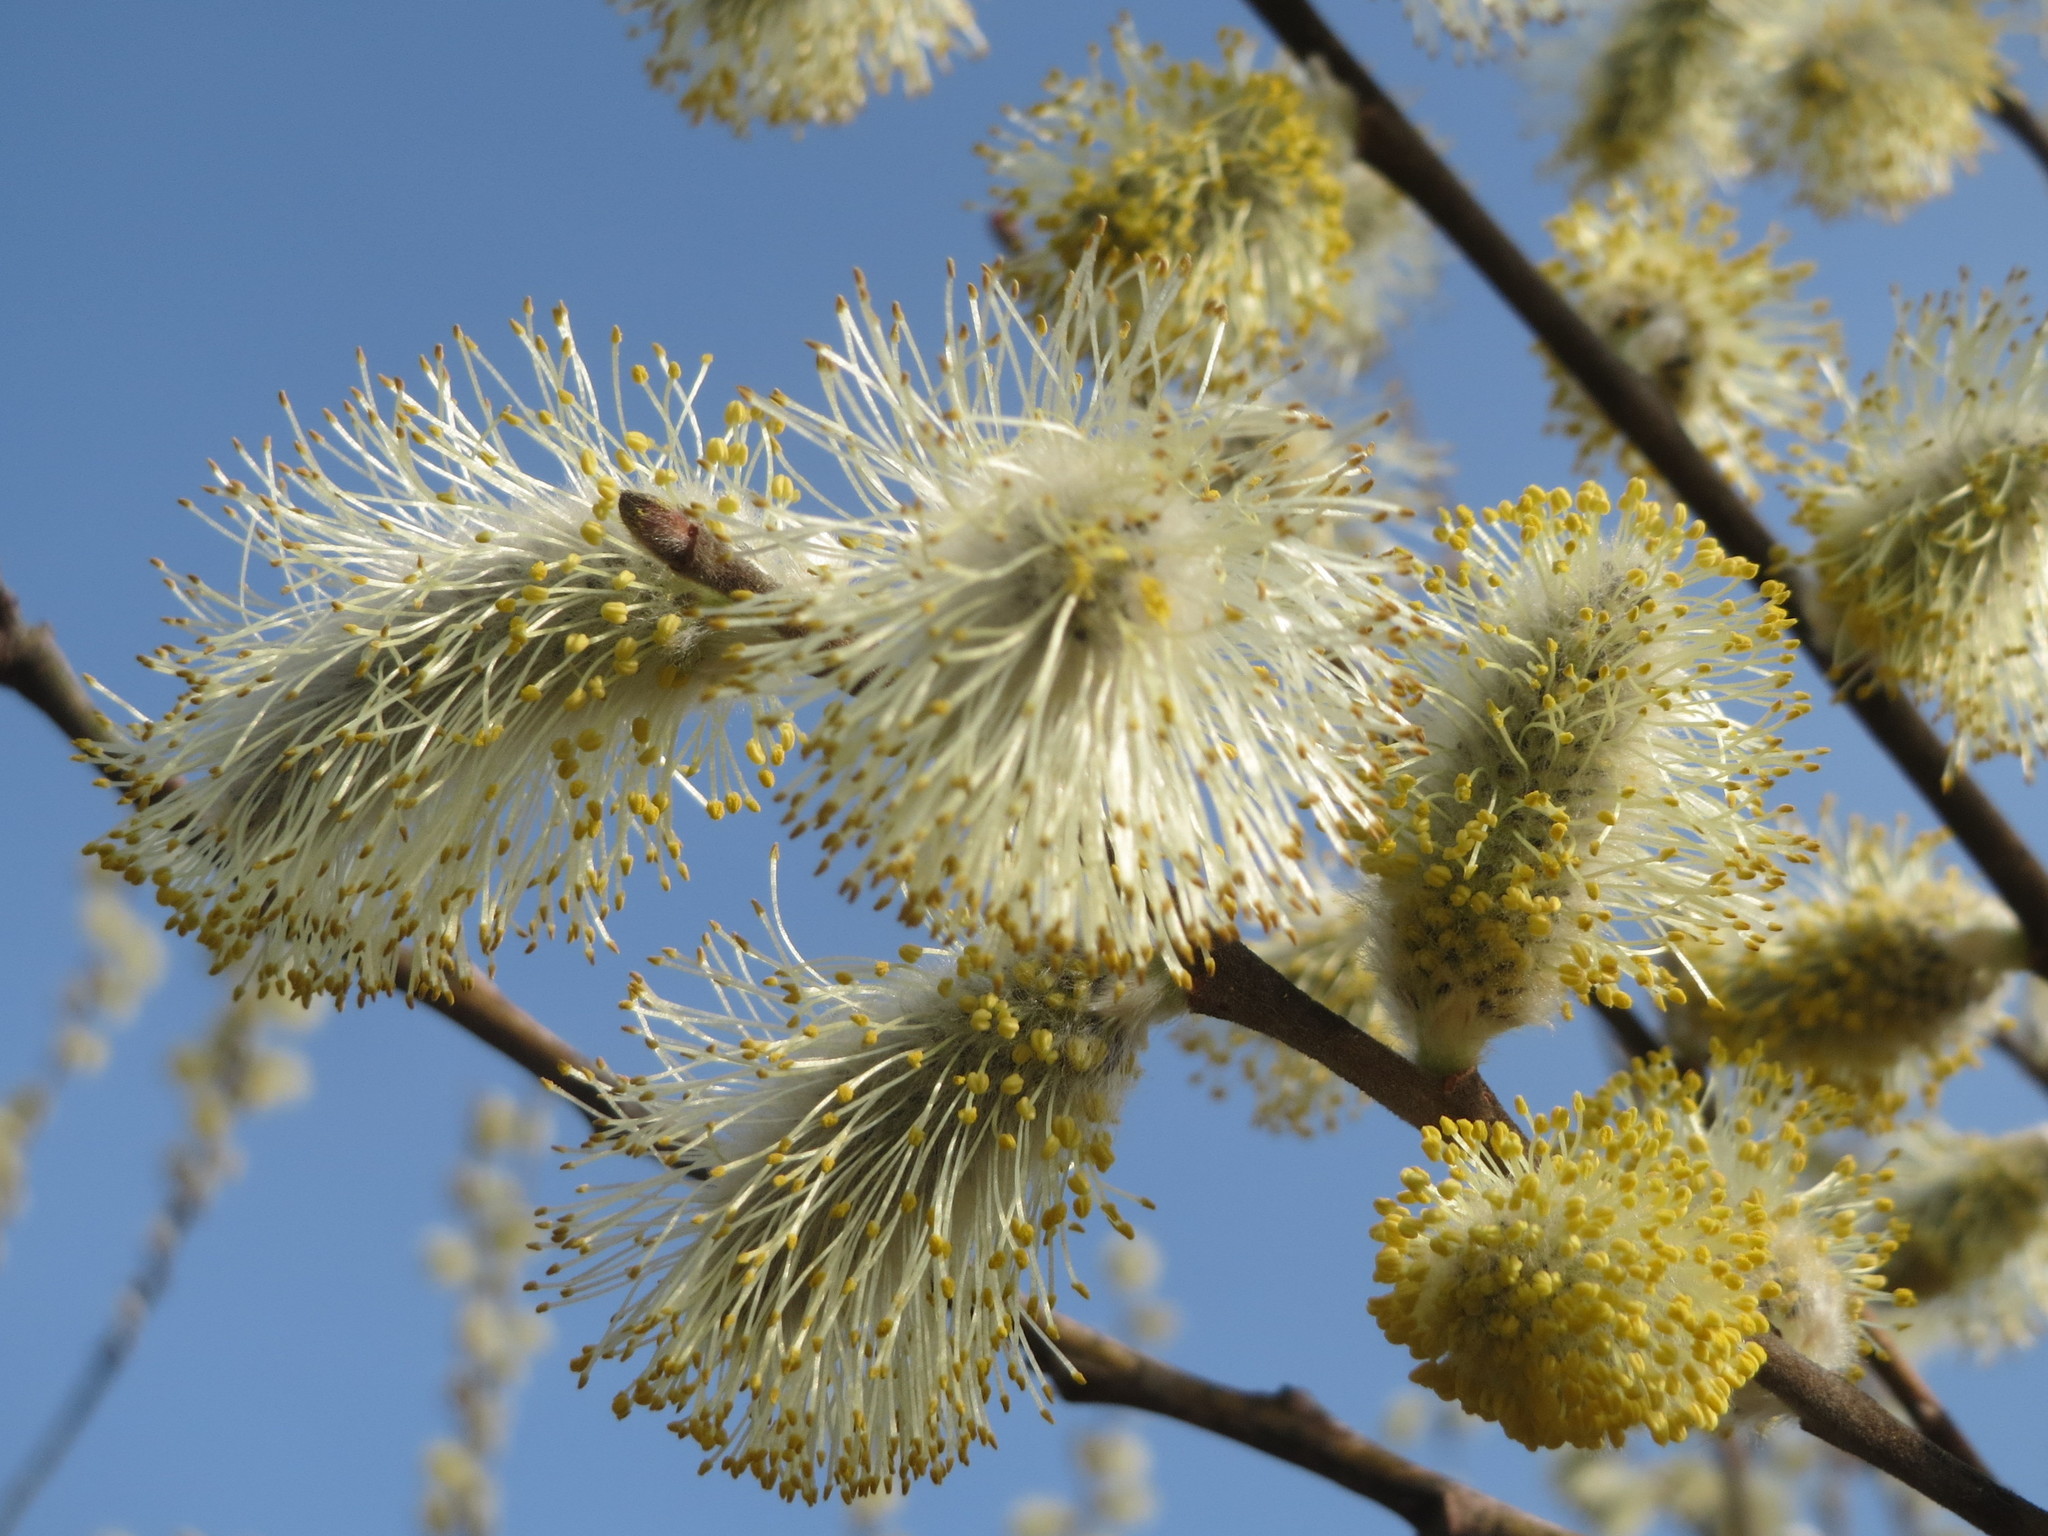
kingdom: Plantae
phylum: Tracheophyta
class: Magnoliopsida
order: Malpighiales
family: Salicaceae
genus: Salix
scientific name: Salix caprea
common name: Goat willow
